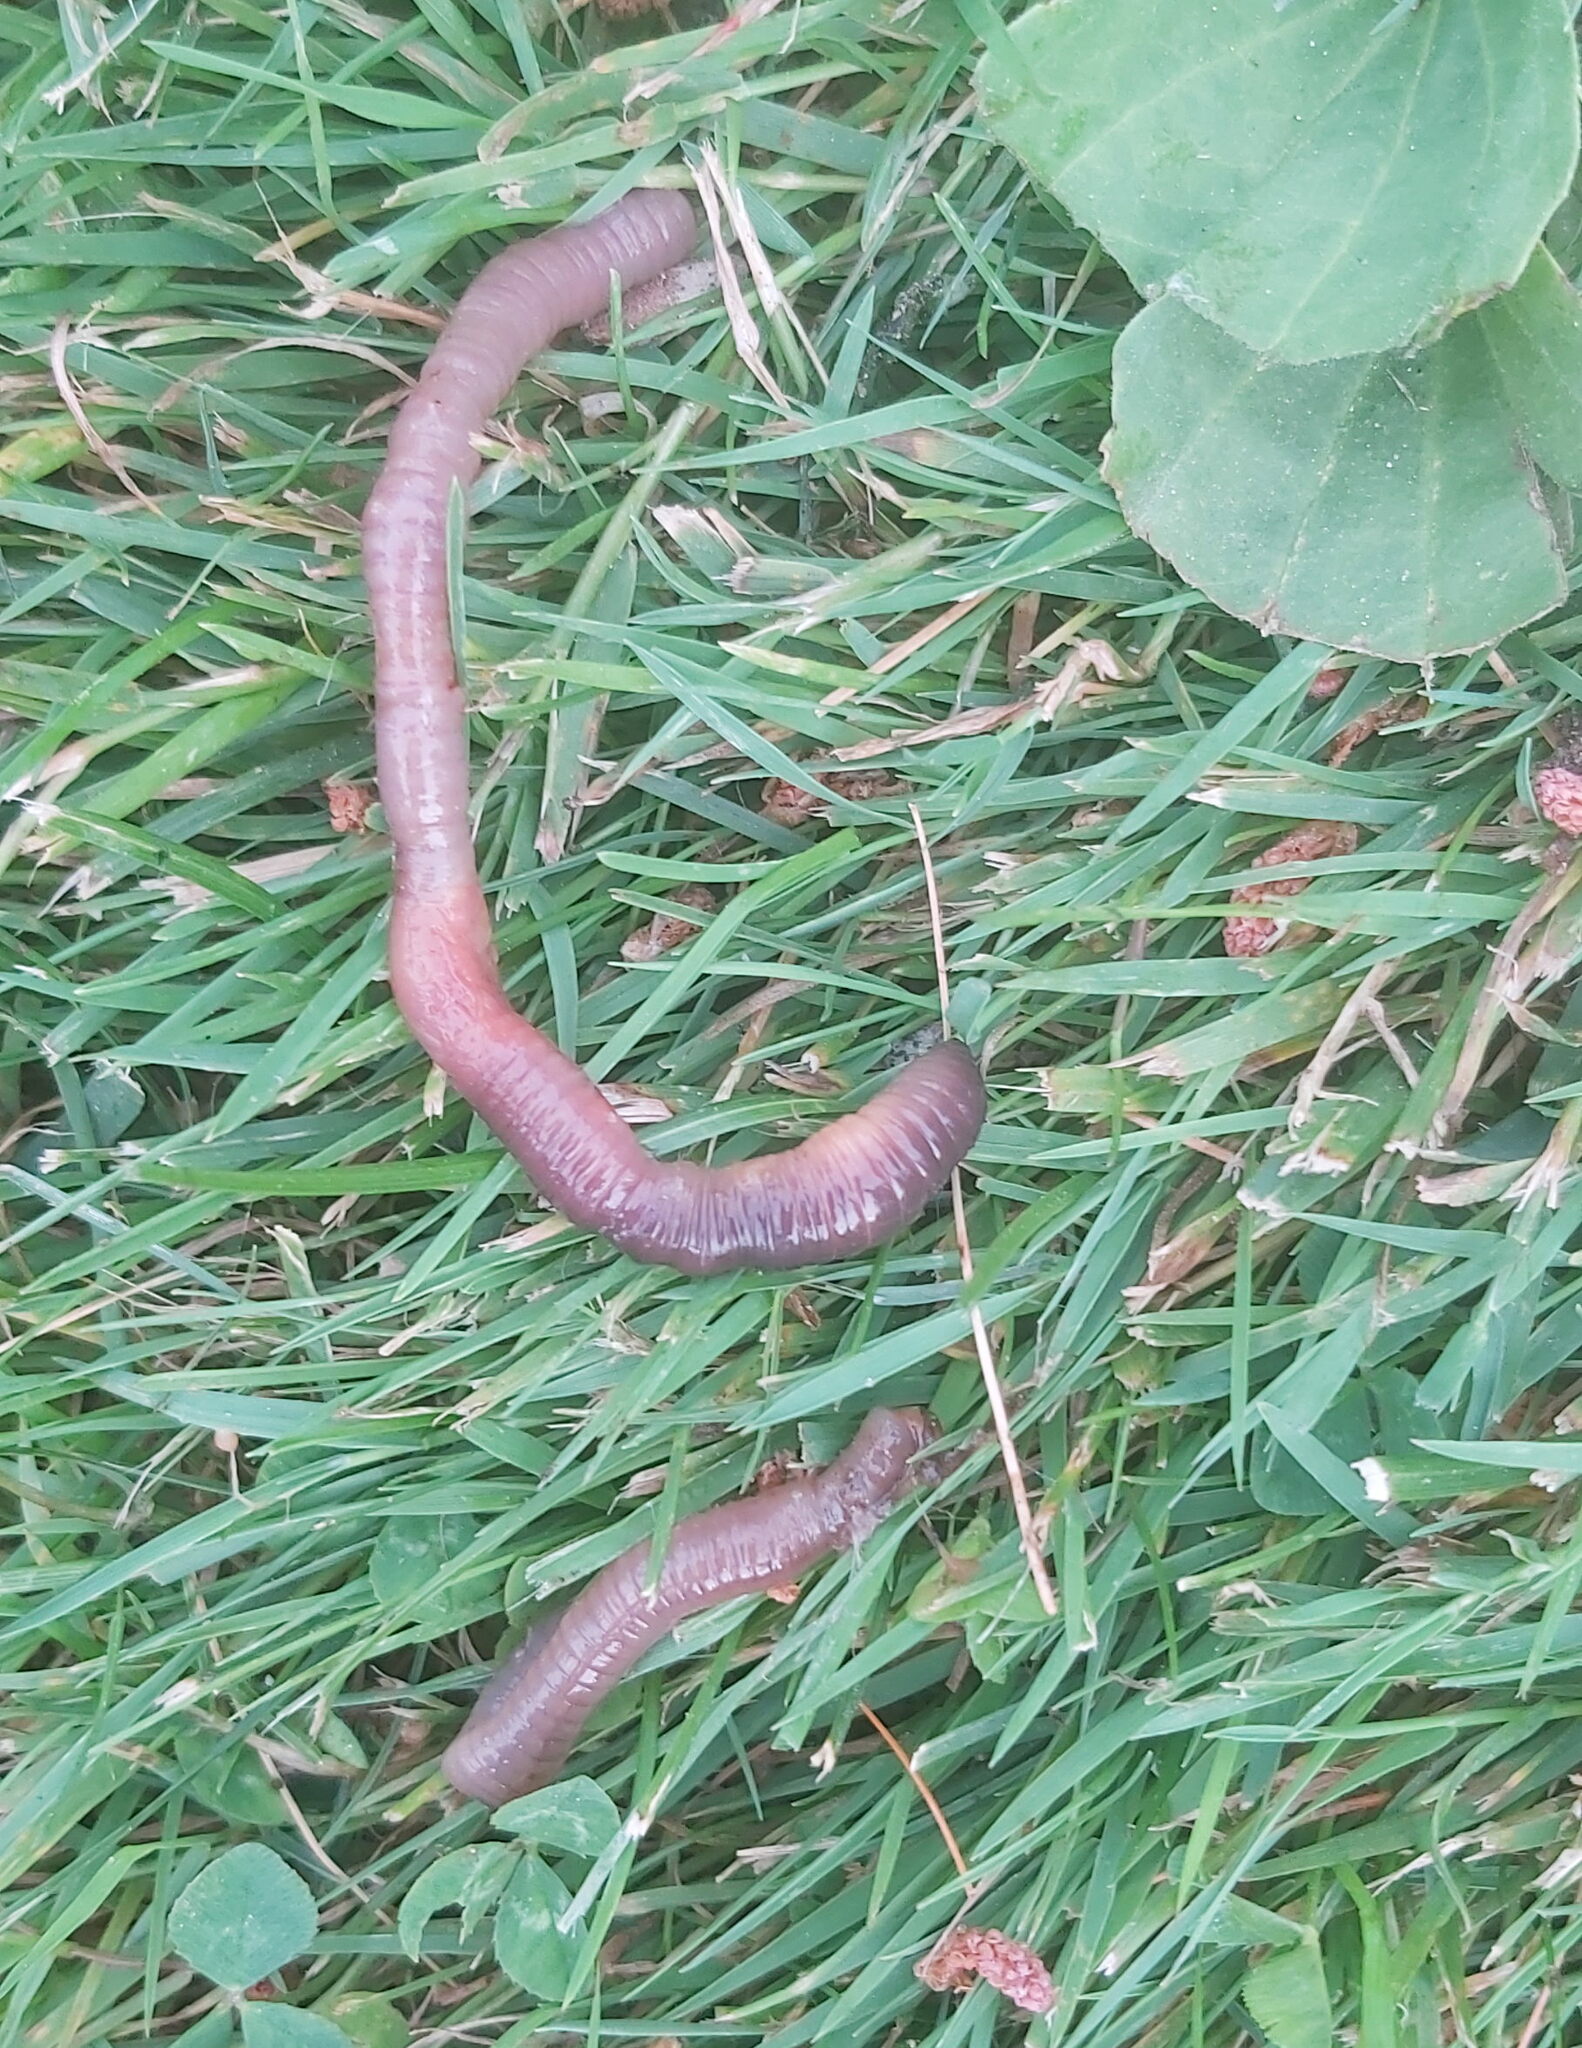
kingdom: Animalia
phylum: Annelida
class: Clitellata
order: Crassiclitellata
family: Lumbricidae
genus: Lumbricus
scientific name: Lumbricus terrestris
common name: Common earthworm
